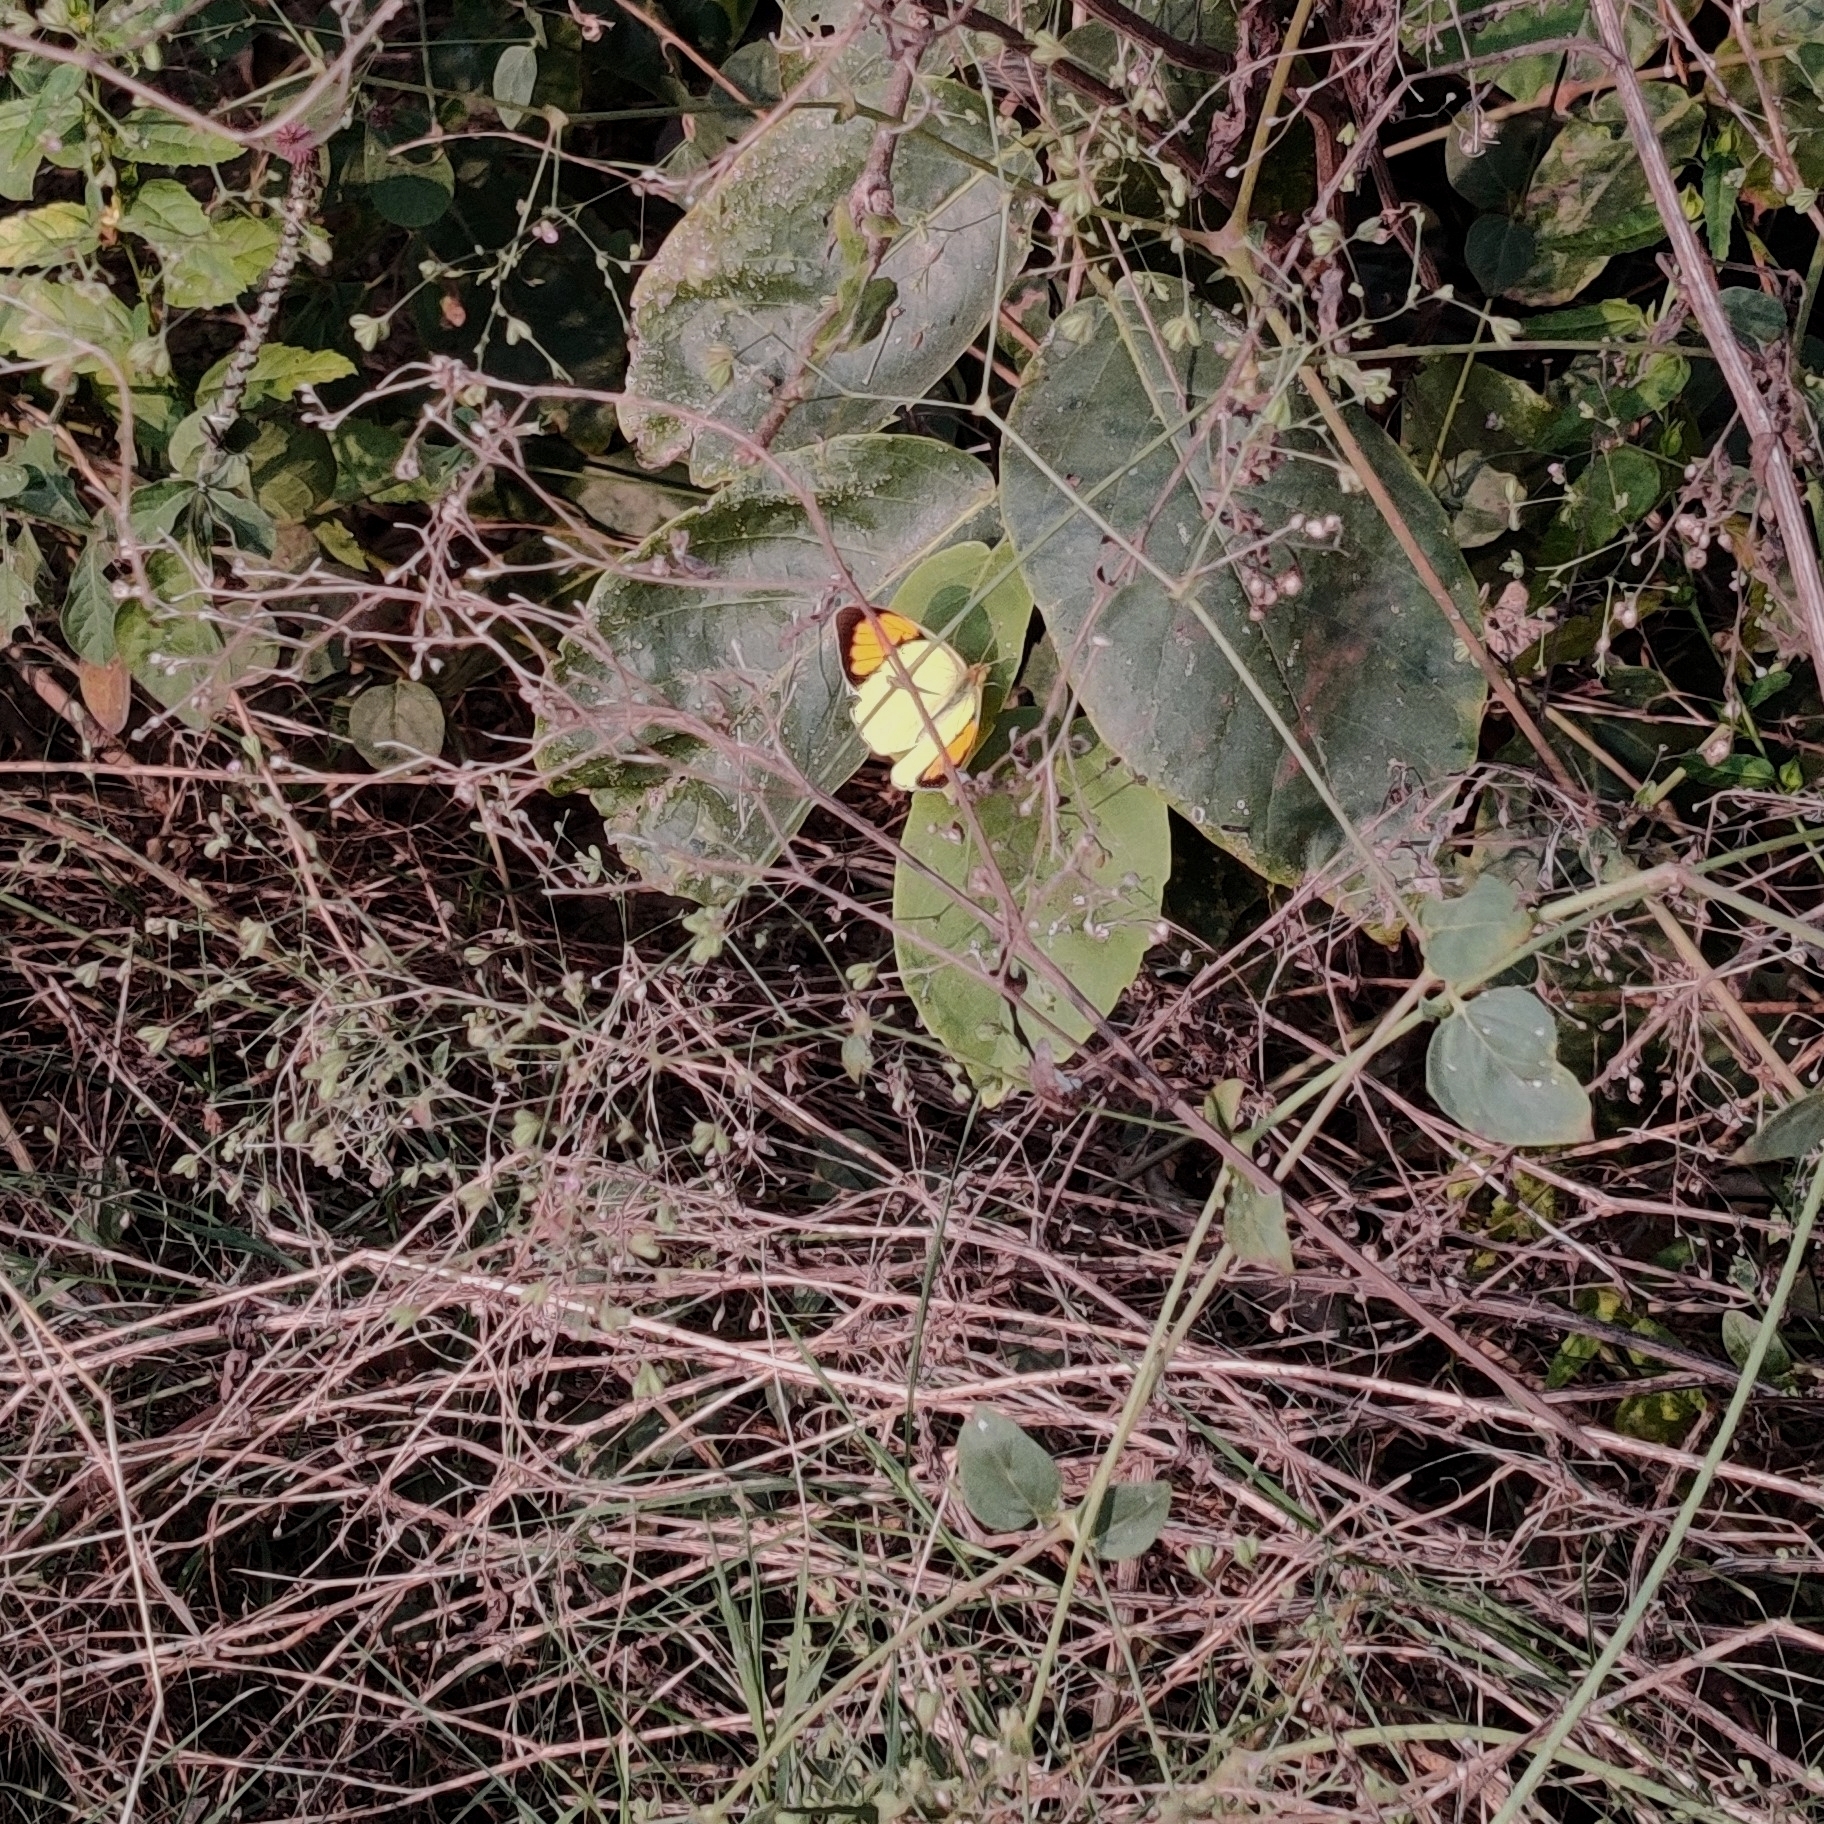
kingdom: Animalia
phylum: Arthropoda
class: Insecta
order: Lepidoptera
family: Pieridae
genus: Ixias
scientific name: Ixias pyrene
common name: Yellow orange tip
